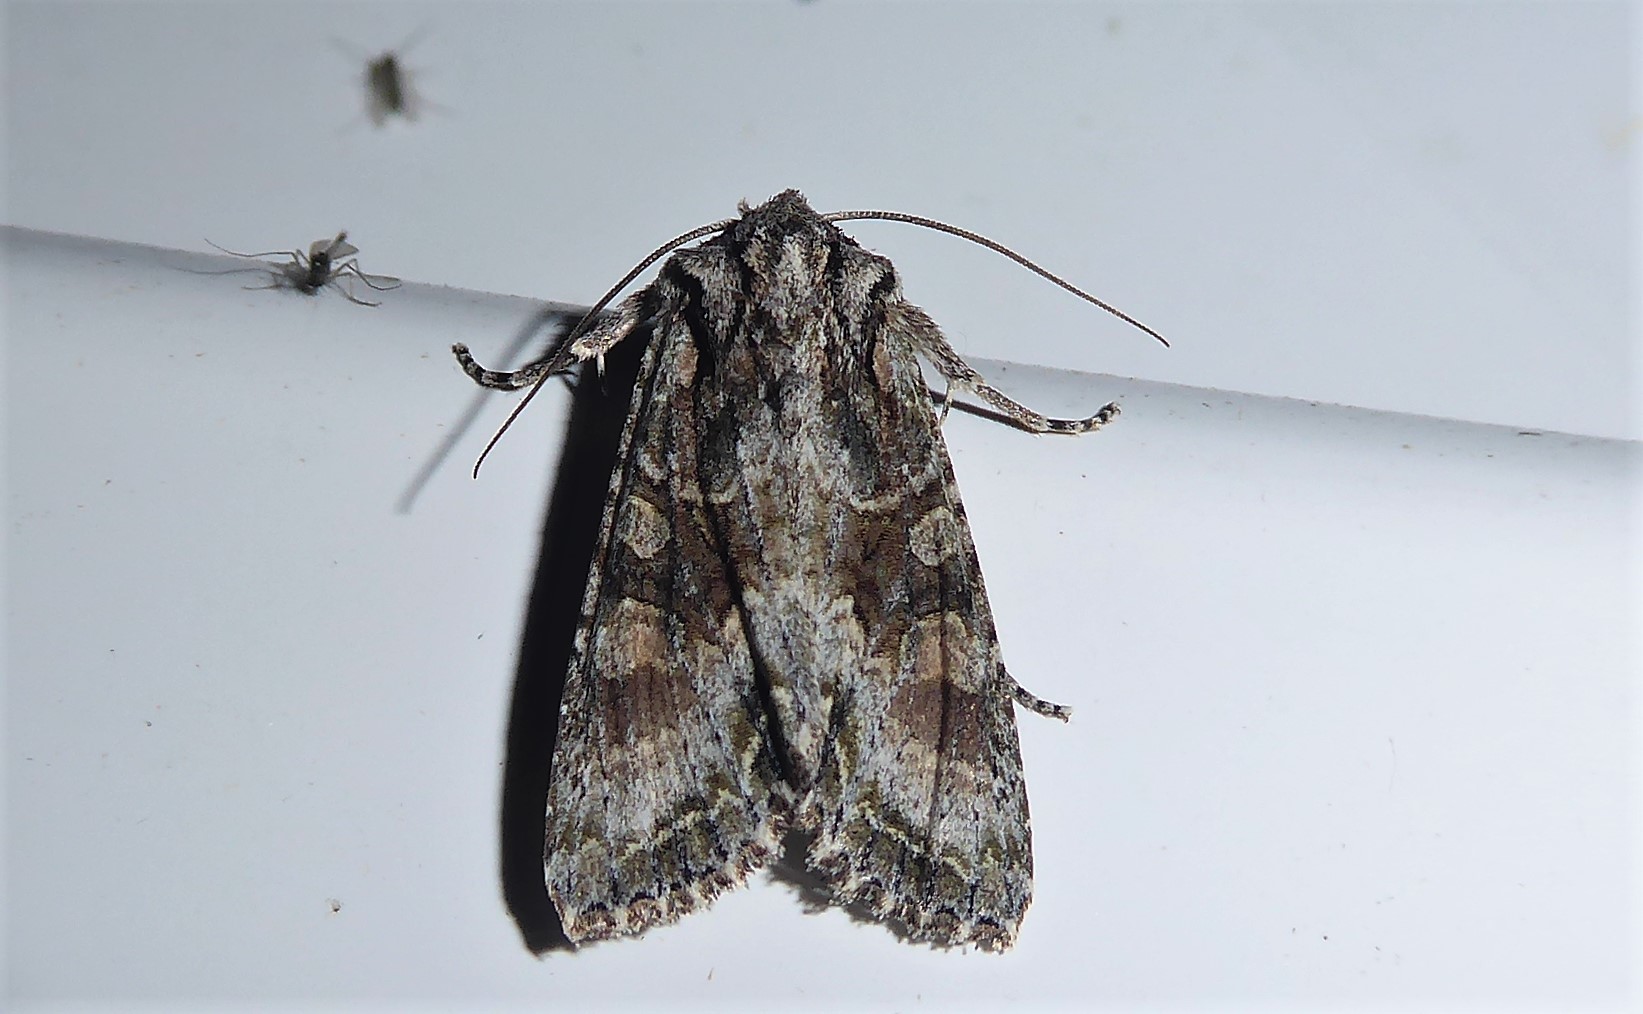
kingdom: Animalia
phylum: Arthropoda
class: Insecta
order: Lepidoptera
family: Noctuidae
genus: Ichneutica
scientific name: Ichneutica mutans
